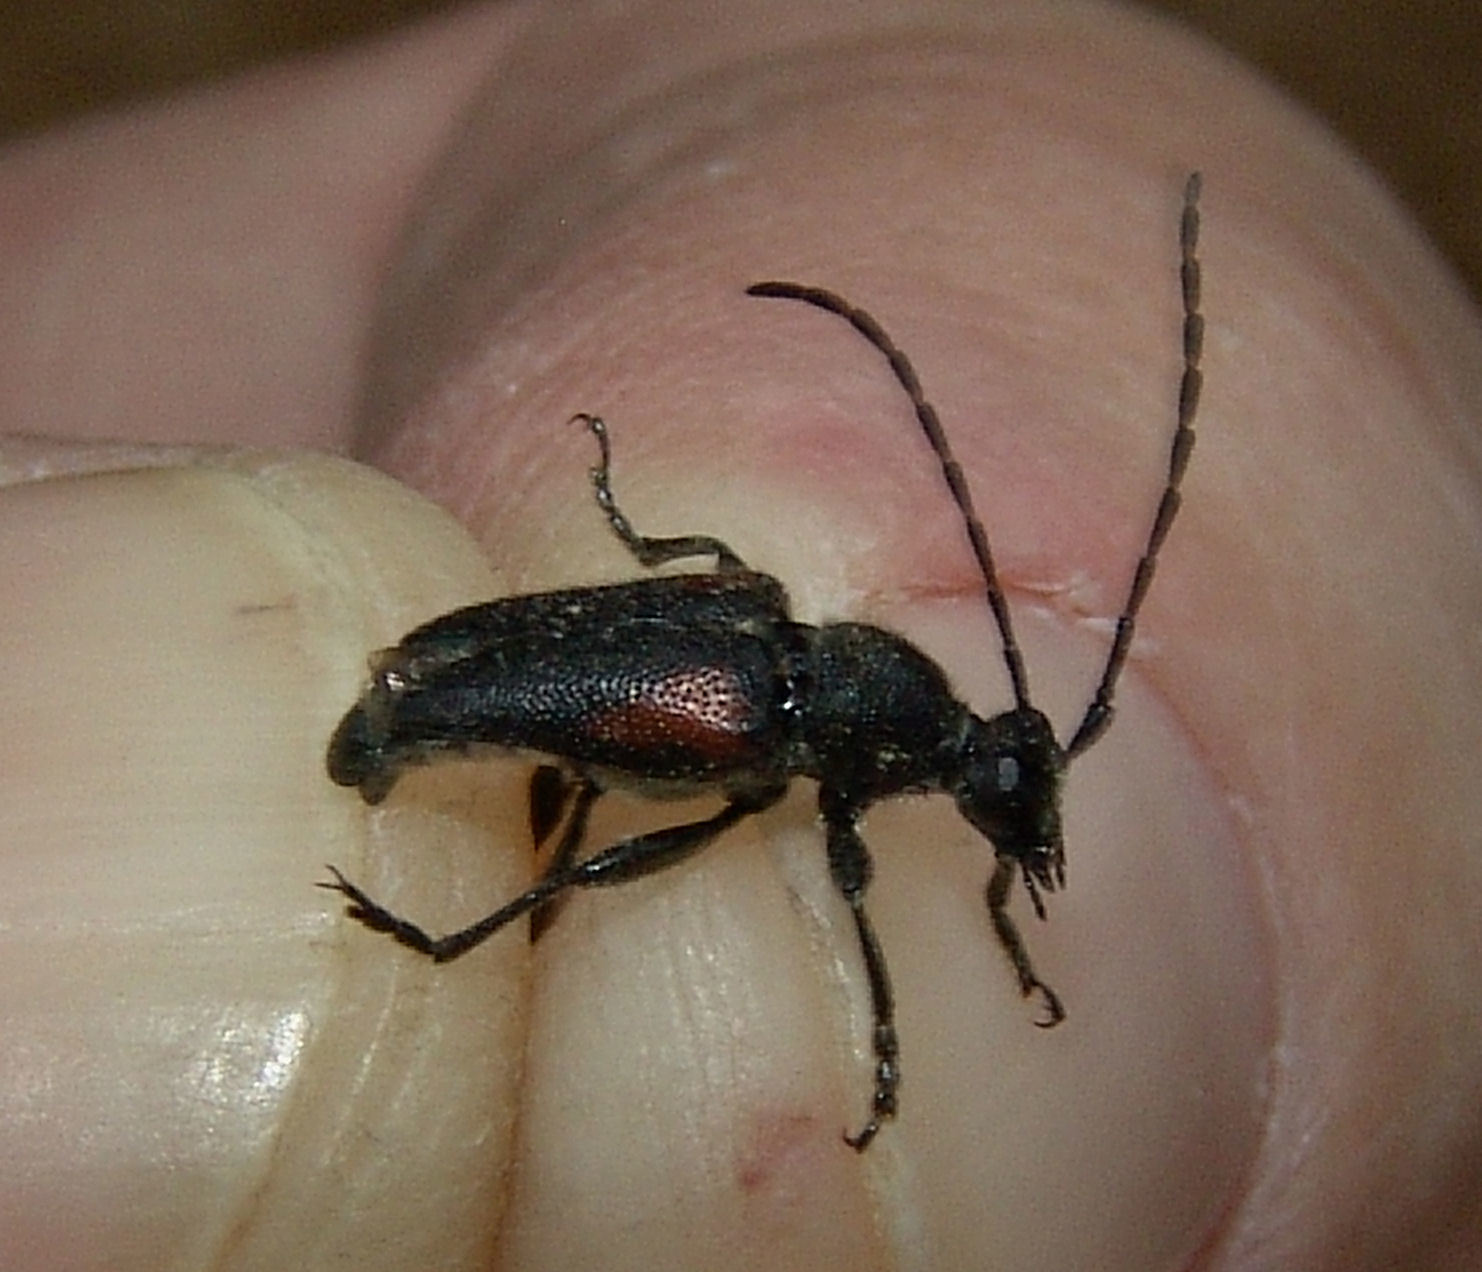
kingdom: Animalia
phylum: Arthropoda
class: Insecta
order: Coleoptera
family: Cerambycidae
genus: Brachyleptura
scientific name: Brachyleptura vagans
